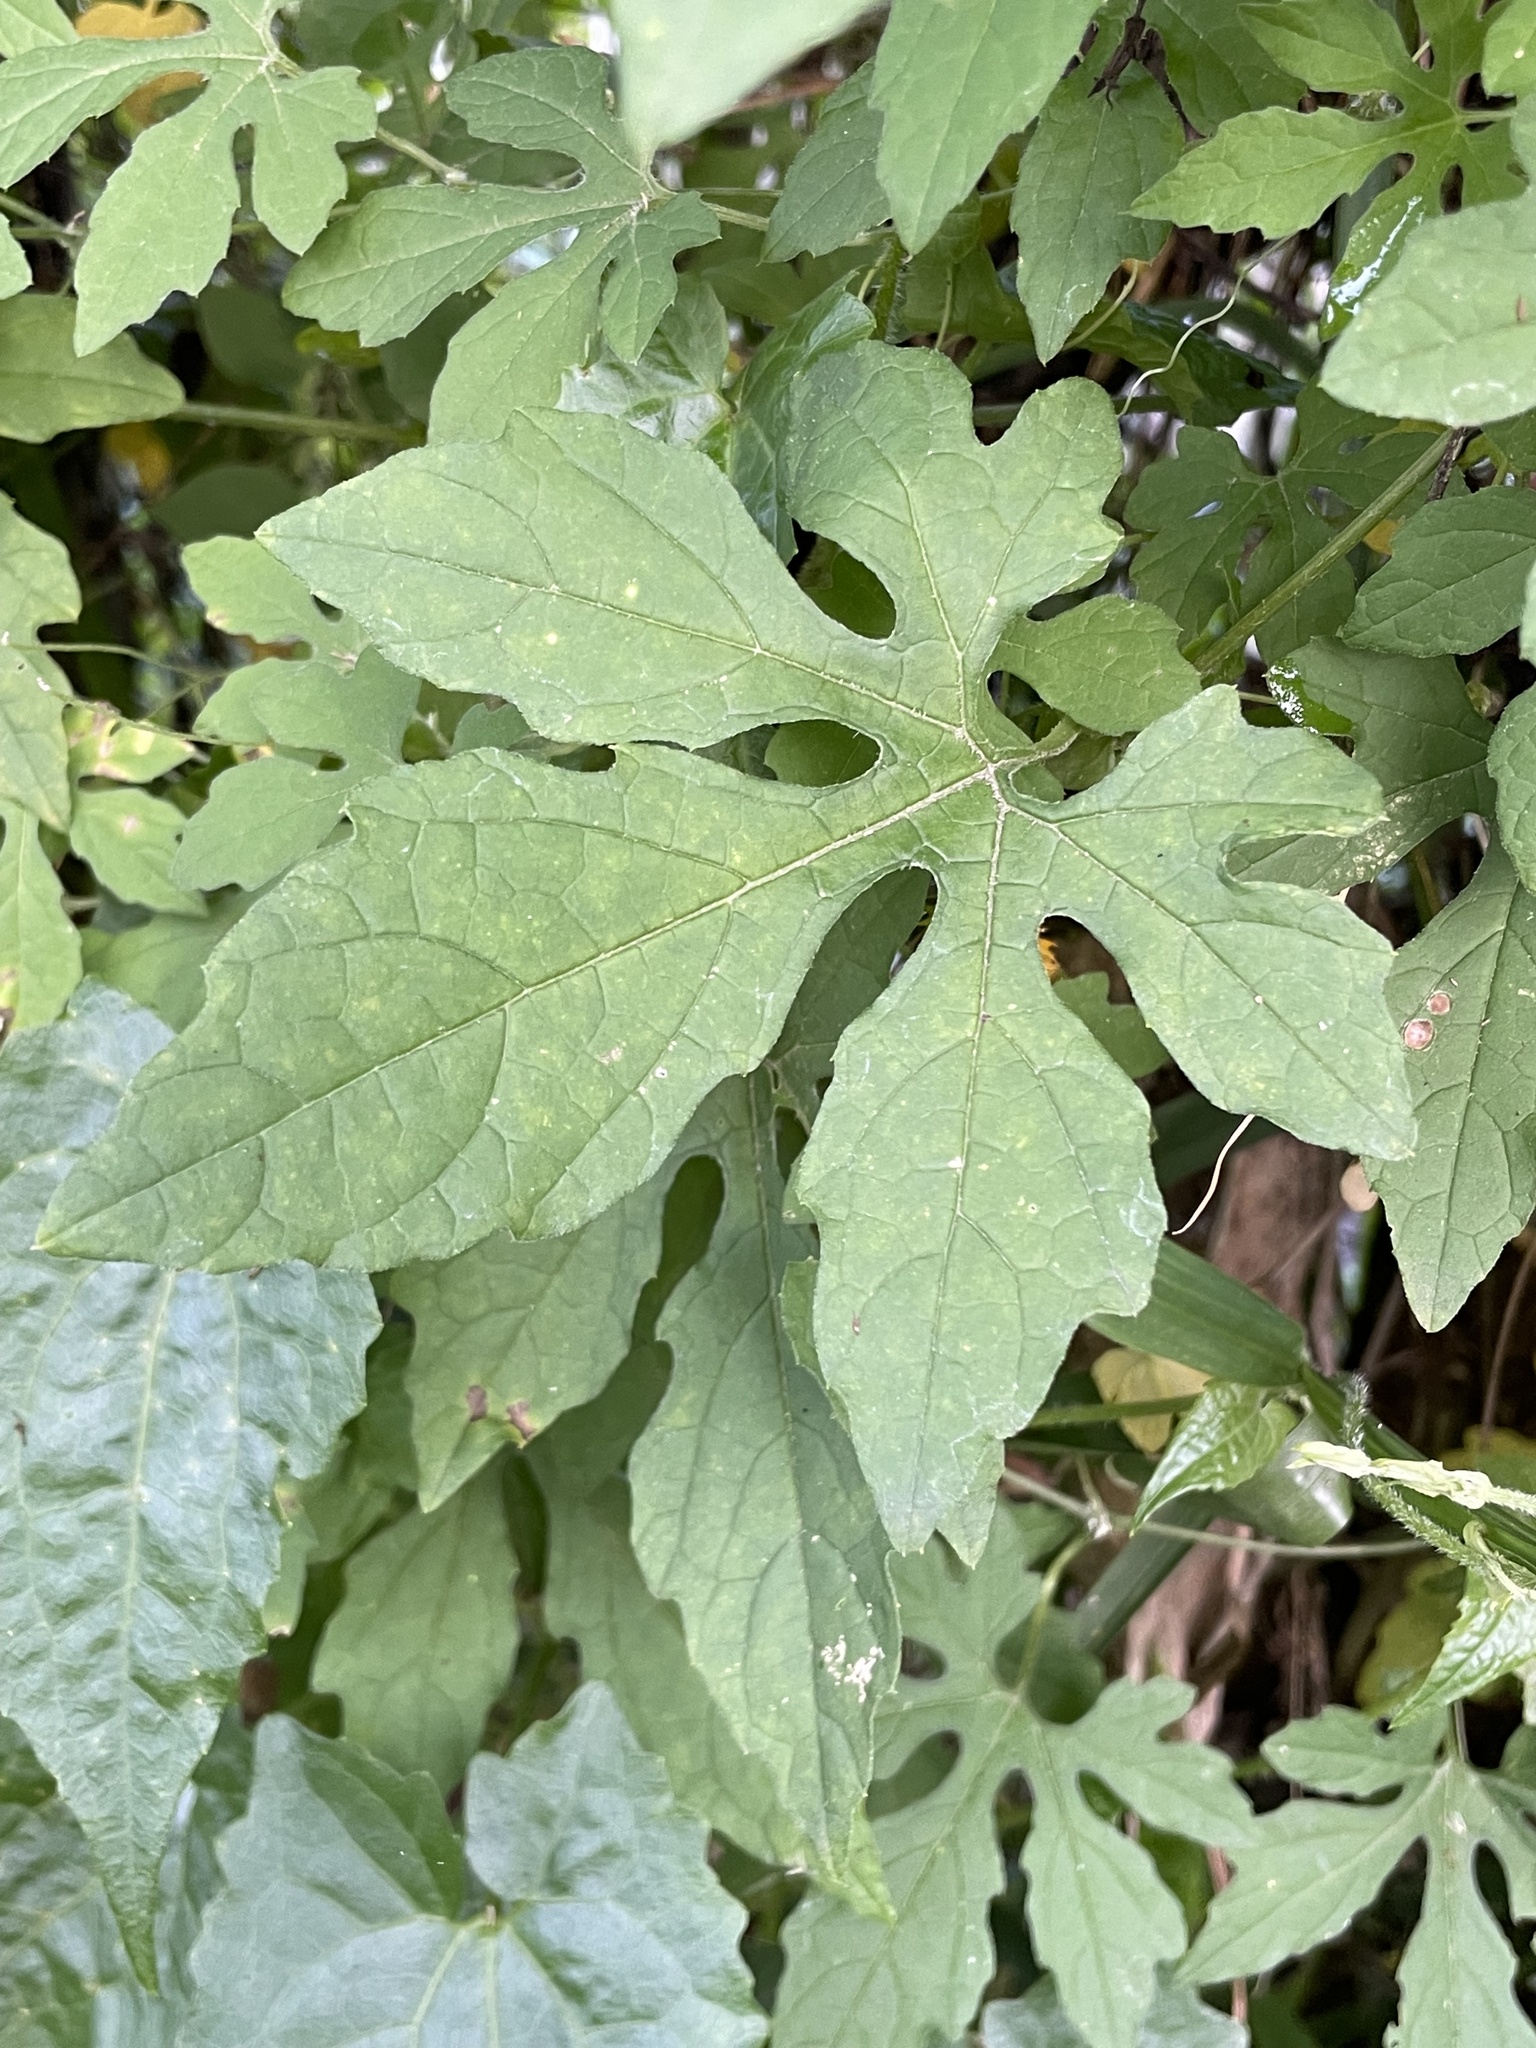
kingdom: Plantae
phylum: Tracheophyta
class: Magnoliopsida
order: Cucurbitales
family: Cucurbitaceae
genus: Momordica
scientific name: Momordica charantia
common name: Balsampear
